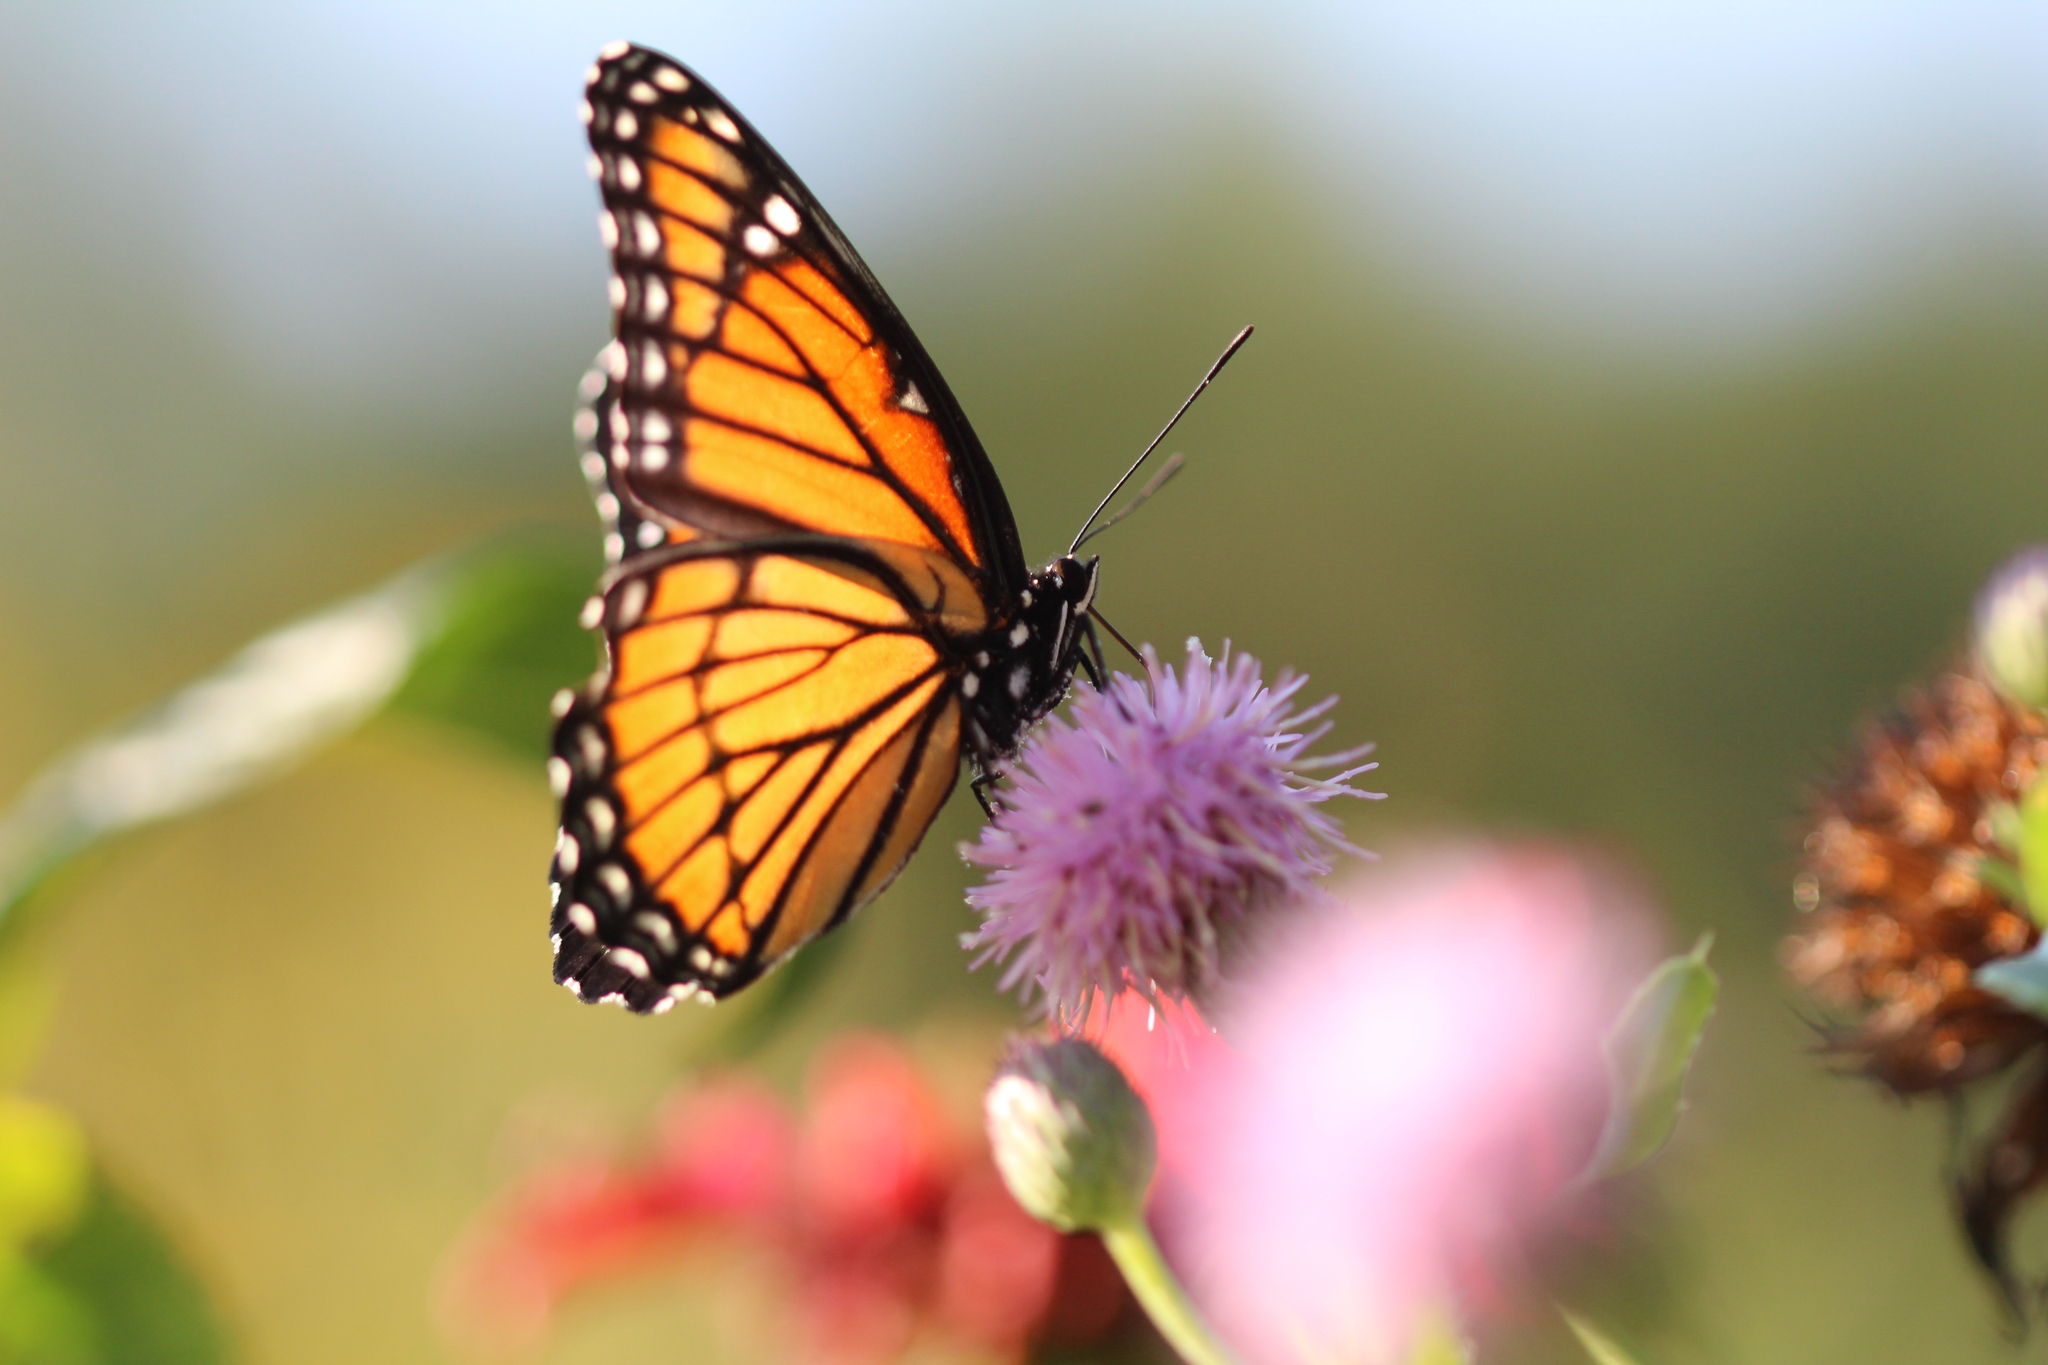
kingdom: Animalia
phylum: Arthropoda
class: Insecta
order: Lepidoptera
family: Nymphalidae
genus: Limenitis
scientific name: Limenitis archippus
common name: Viceroy
